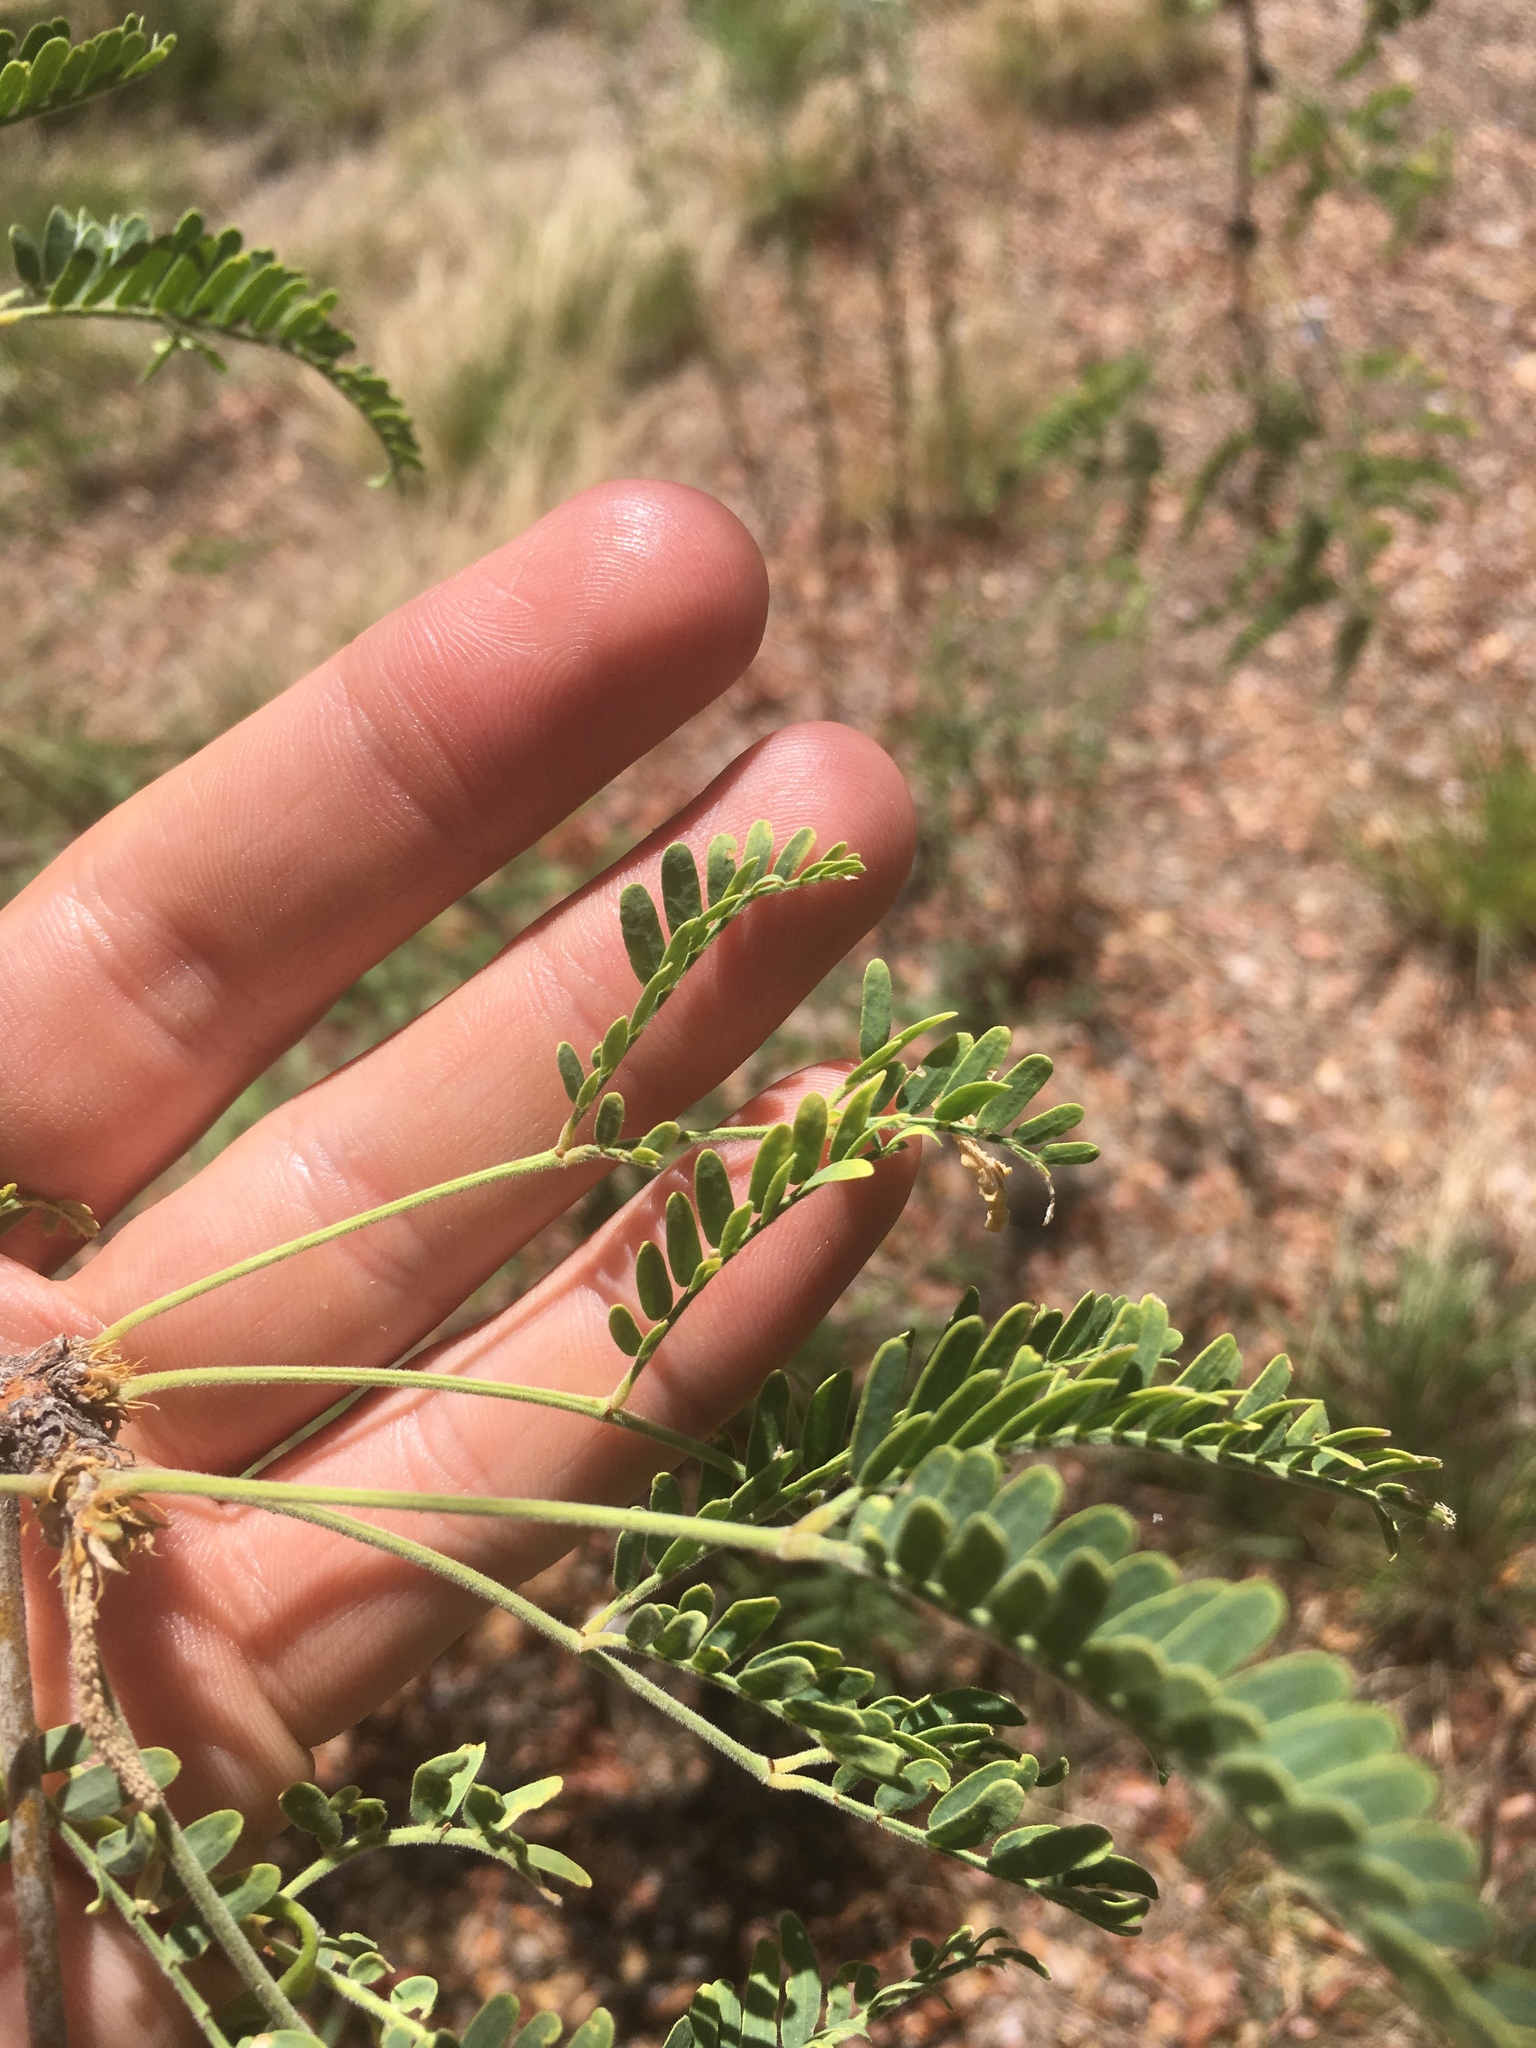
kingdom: Plantae
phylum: Tracheophyta
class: Magnoliopsida
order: Fabales
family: Fabaceae
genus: Prosopis
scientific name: Prosopis velutina
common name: Velvet mesquite
